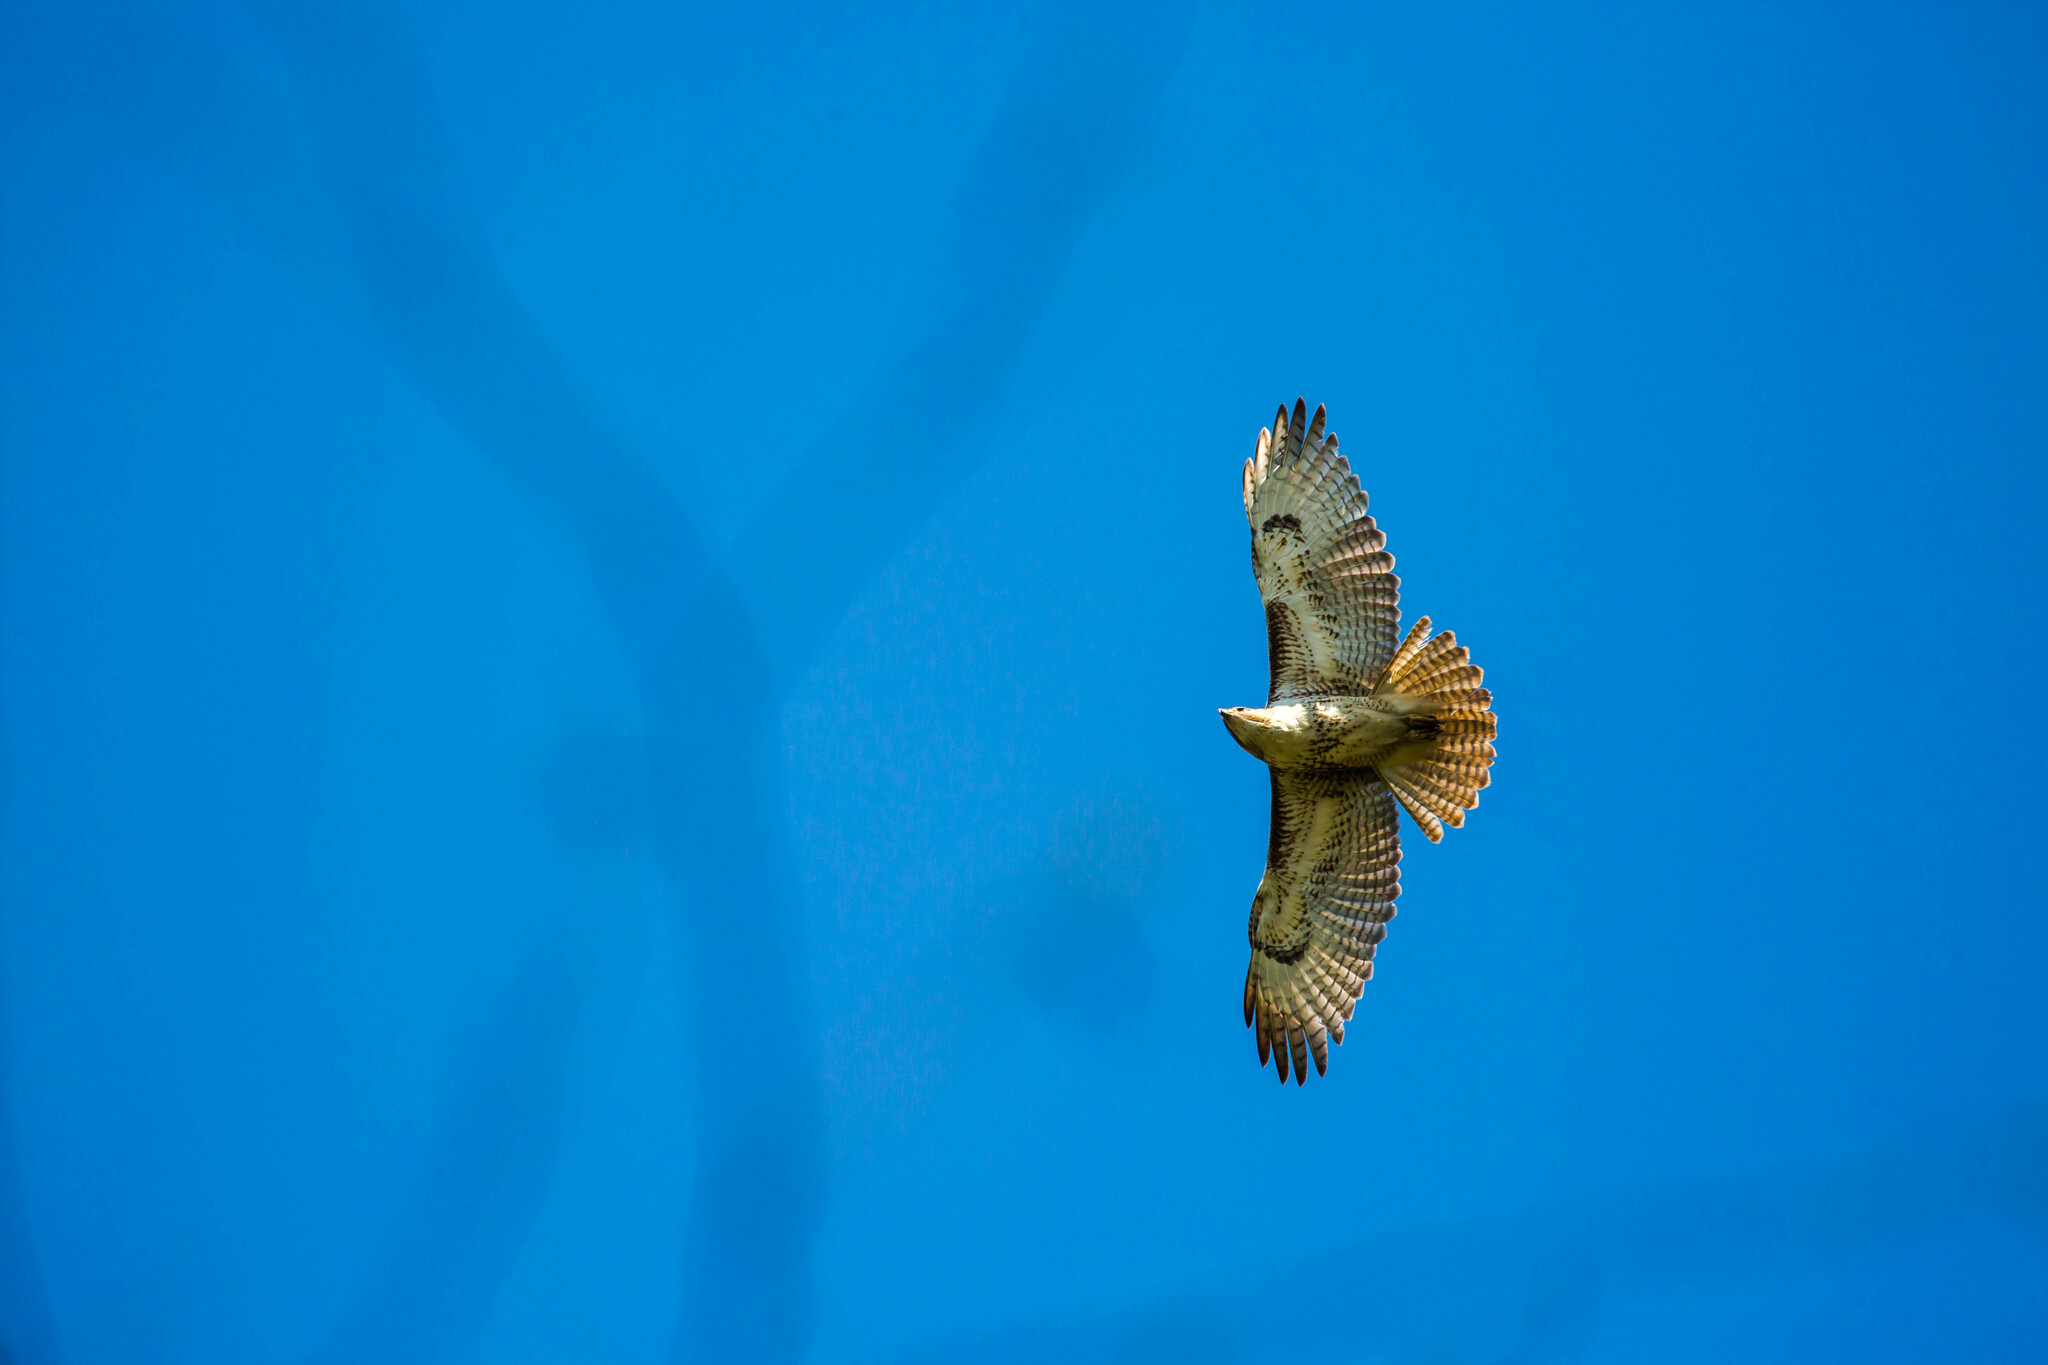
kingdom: Animalia
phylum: Chordata
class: Aves
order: Accipitriformes
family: Accipitridae
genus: Buteo
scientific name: Buteo jamaicensis
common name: Red-tailed hawk
